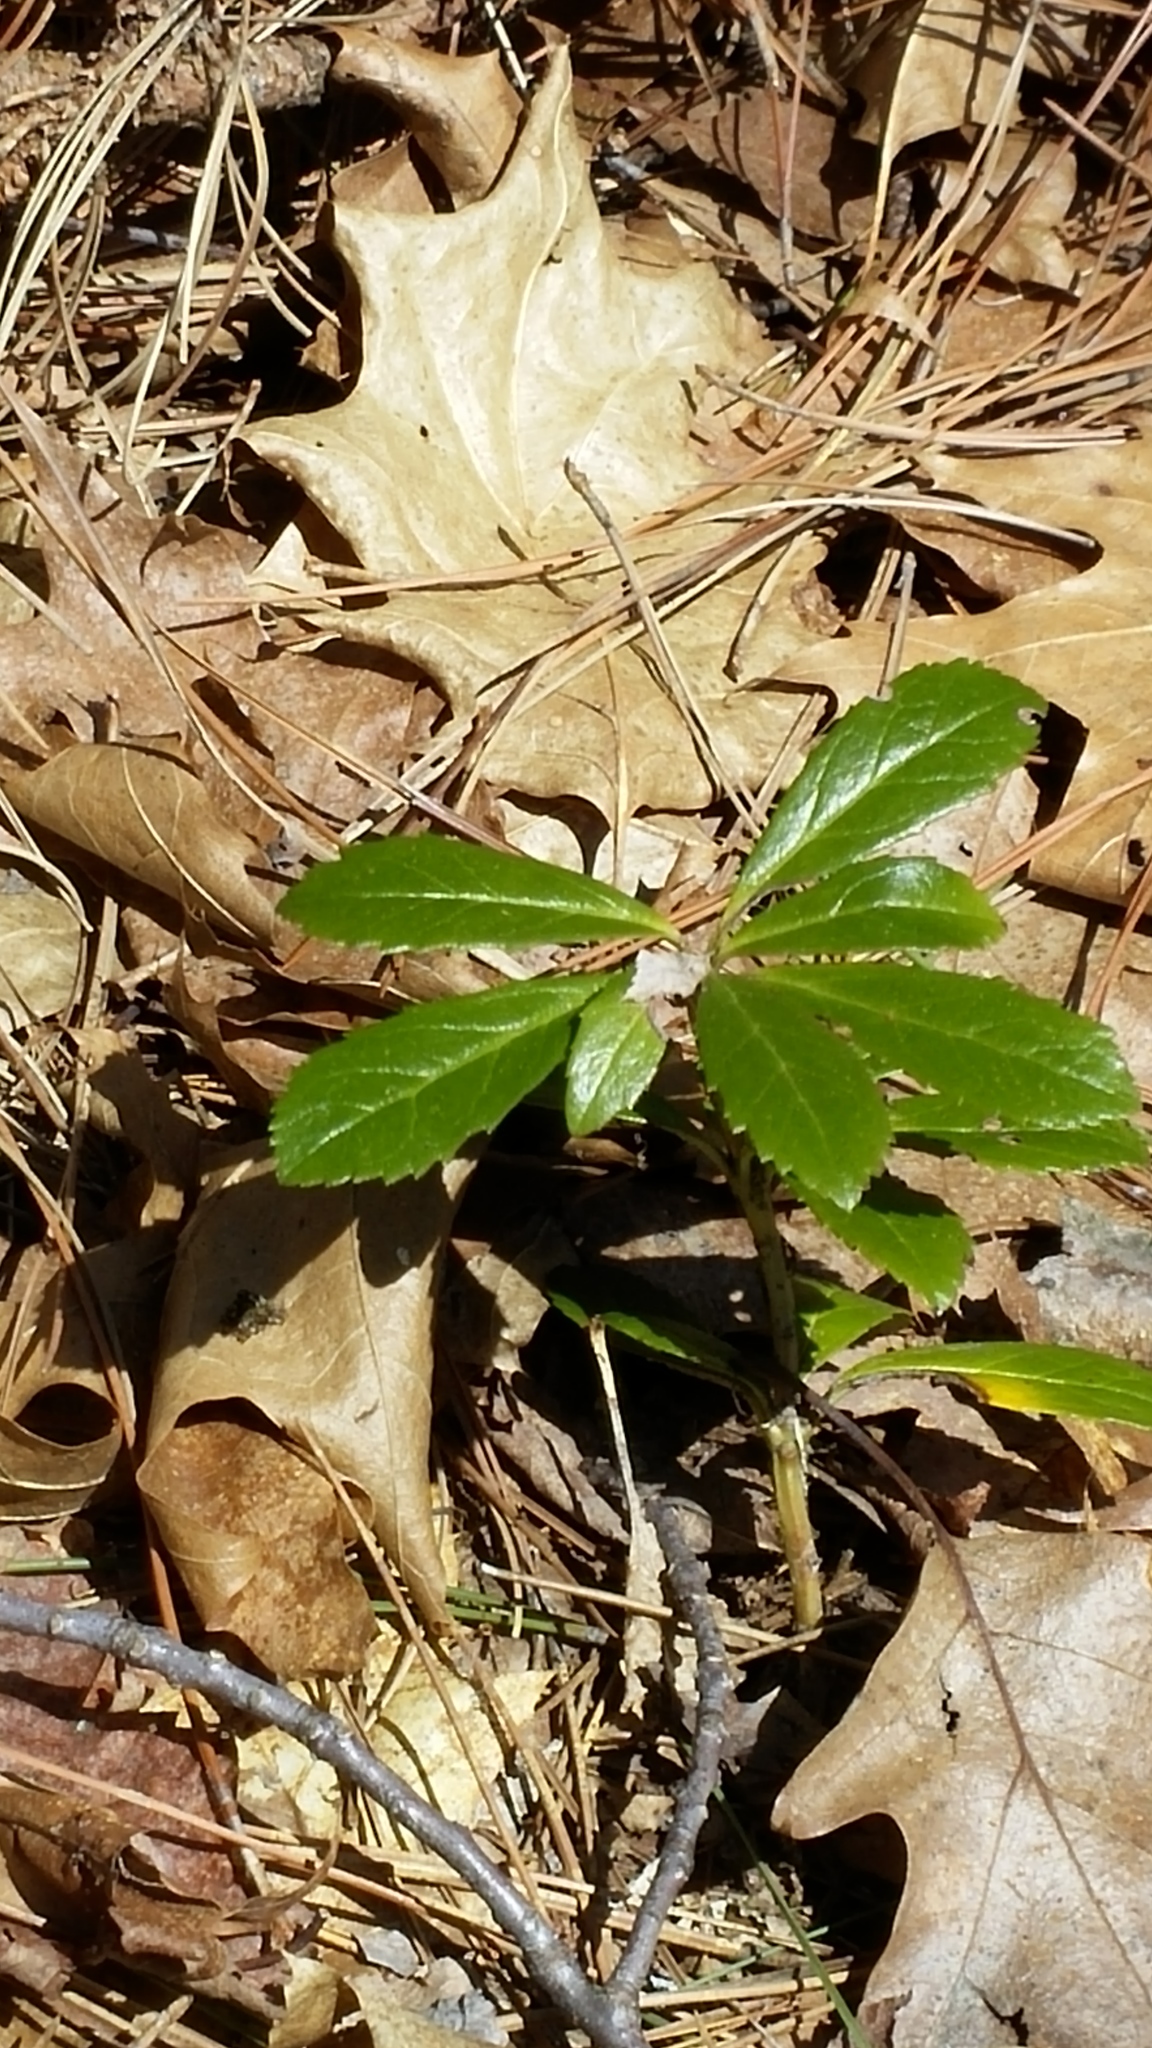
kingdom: Plantae
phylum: Tracheophyta
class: Magnoliopsida
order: Ericales
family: Ericaceae
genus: Chimaphila
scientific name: Chimaphila umbellata
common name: Pipsissewa
